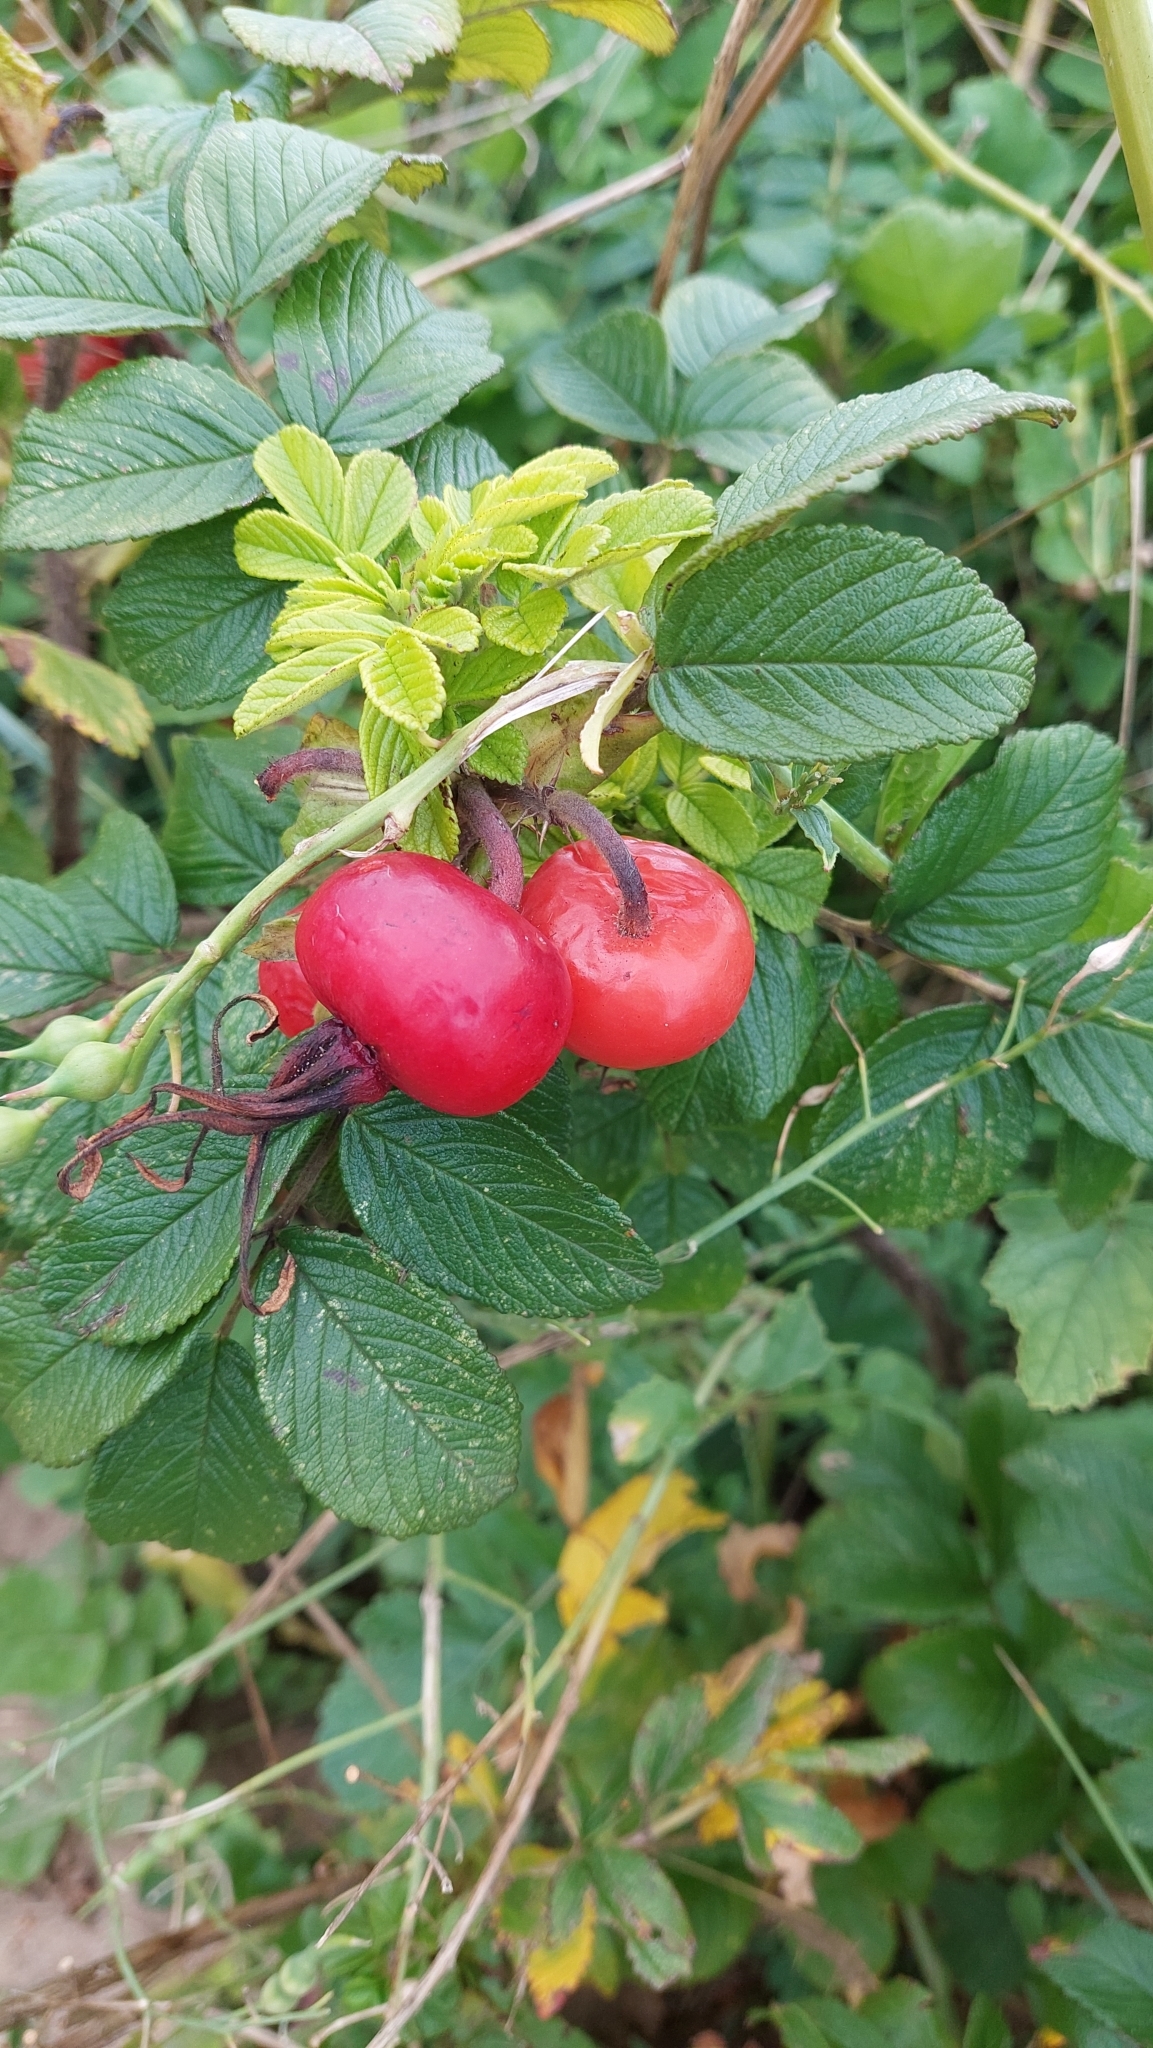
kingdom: Plantae
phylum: Tracheophyta
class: Magnoliopsida
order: Rosales
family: Rosaceae
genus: Rosa
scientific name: Rosa rugosa
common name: Japanese rose
